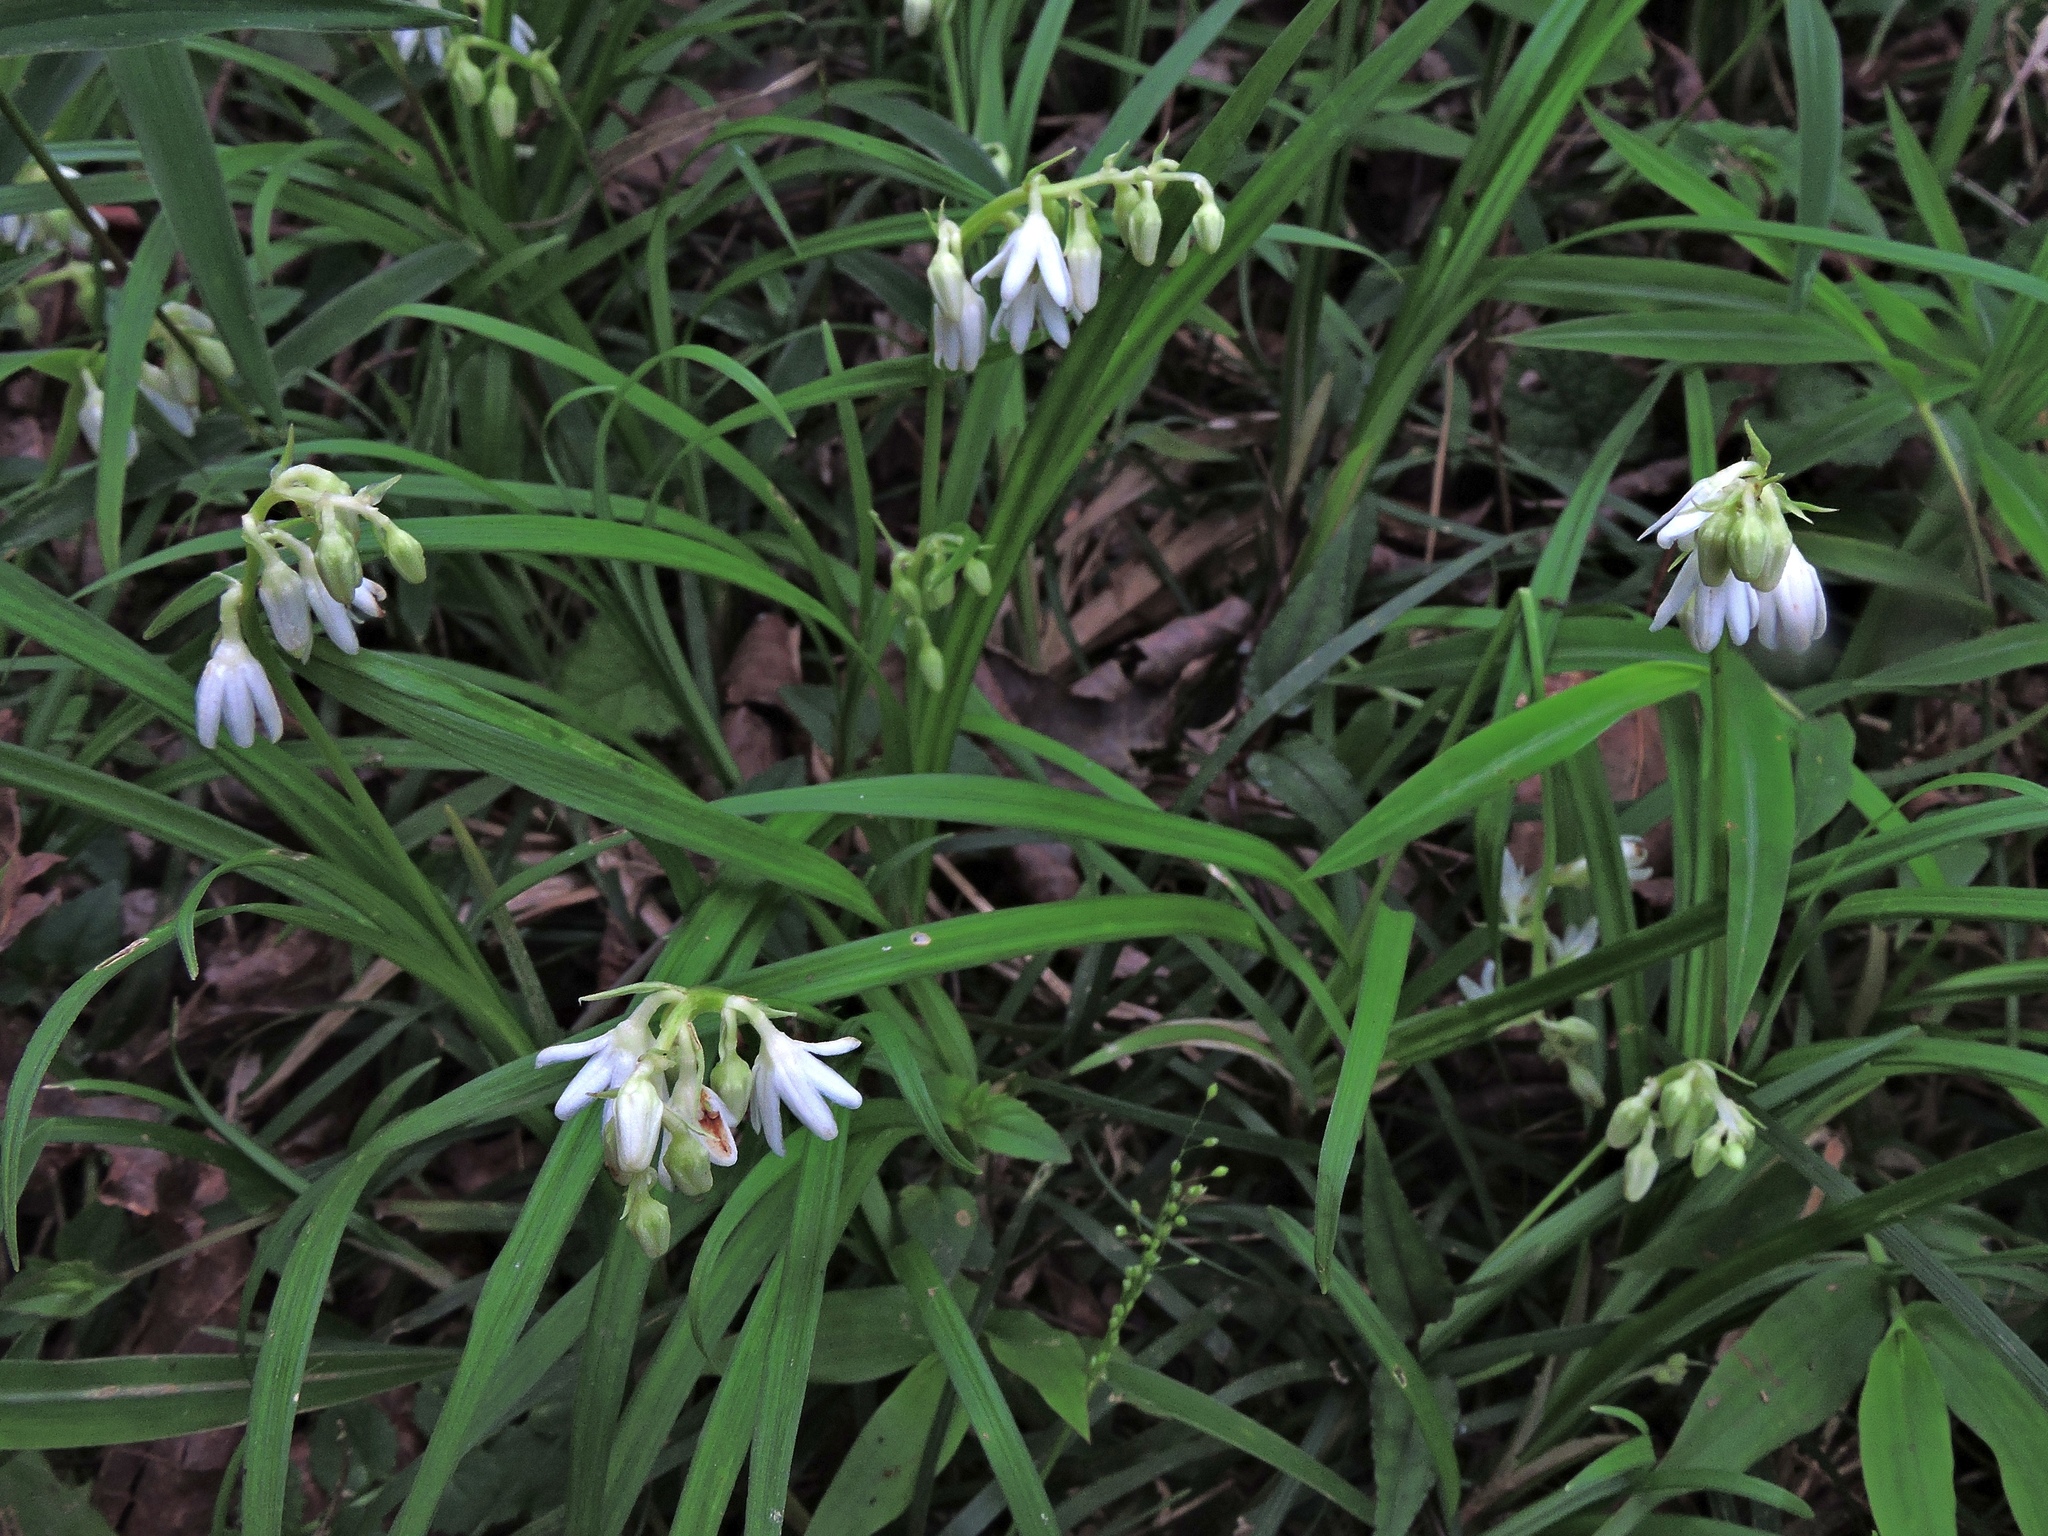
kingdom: Plantae
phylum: Tracheophyta
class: Liliopsida
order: Asparagales
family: Asparagaceae
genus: Ophiopogon
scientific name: Ophiopogon intermedius
